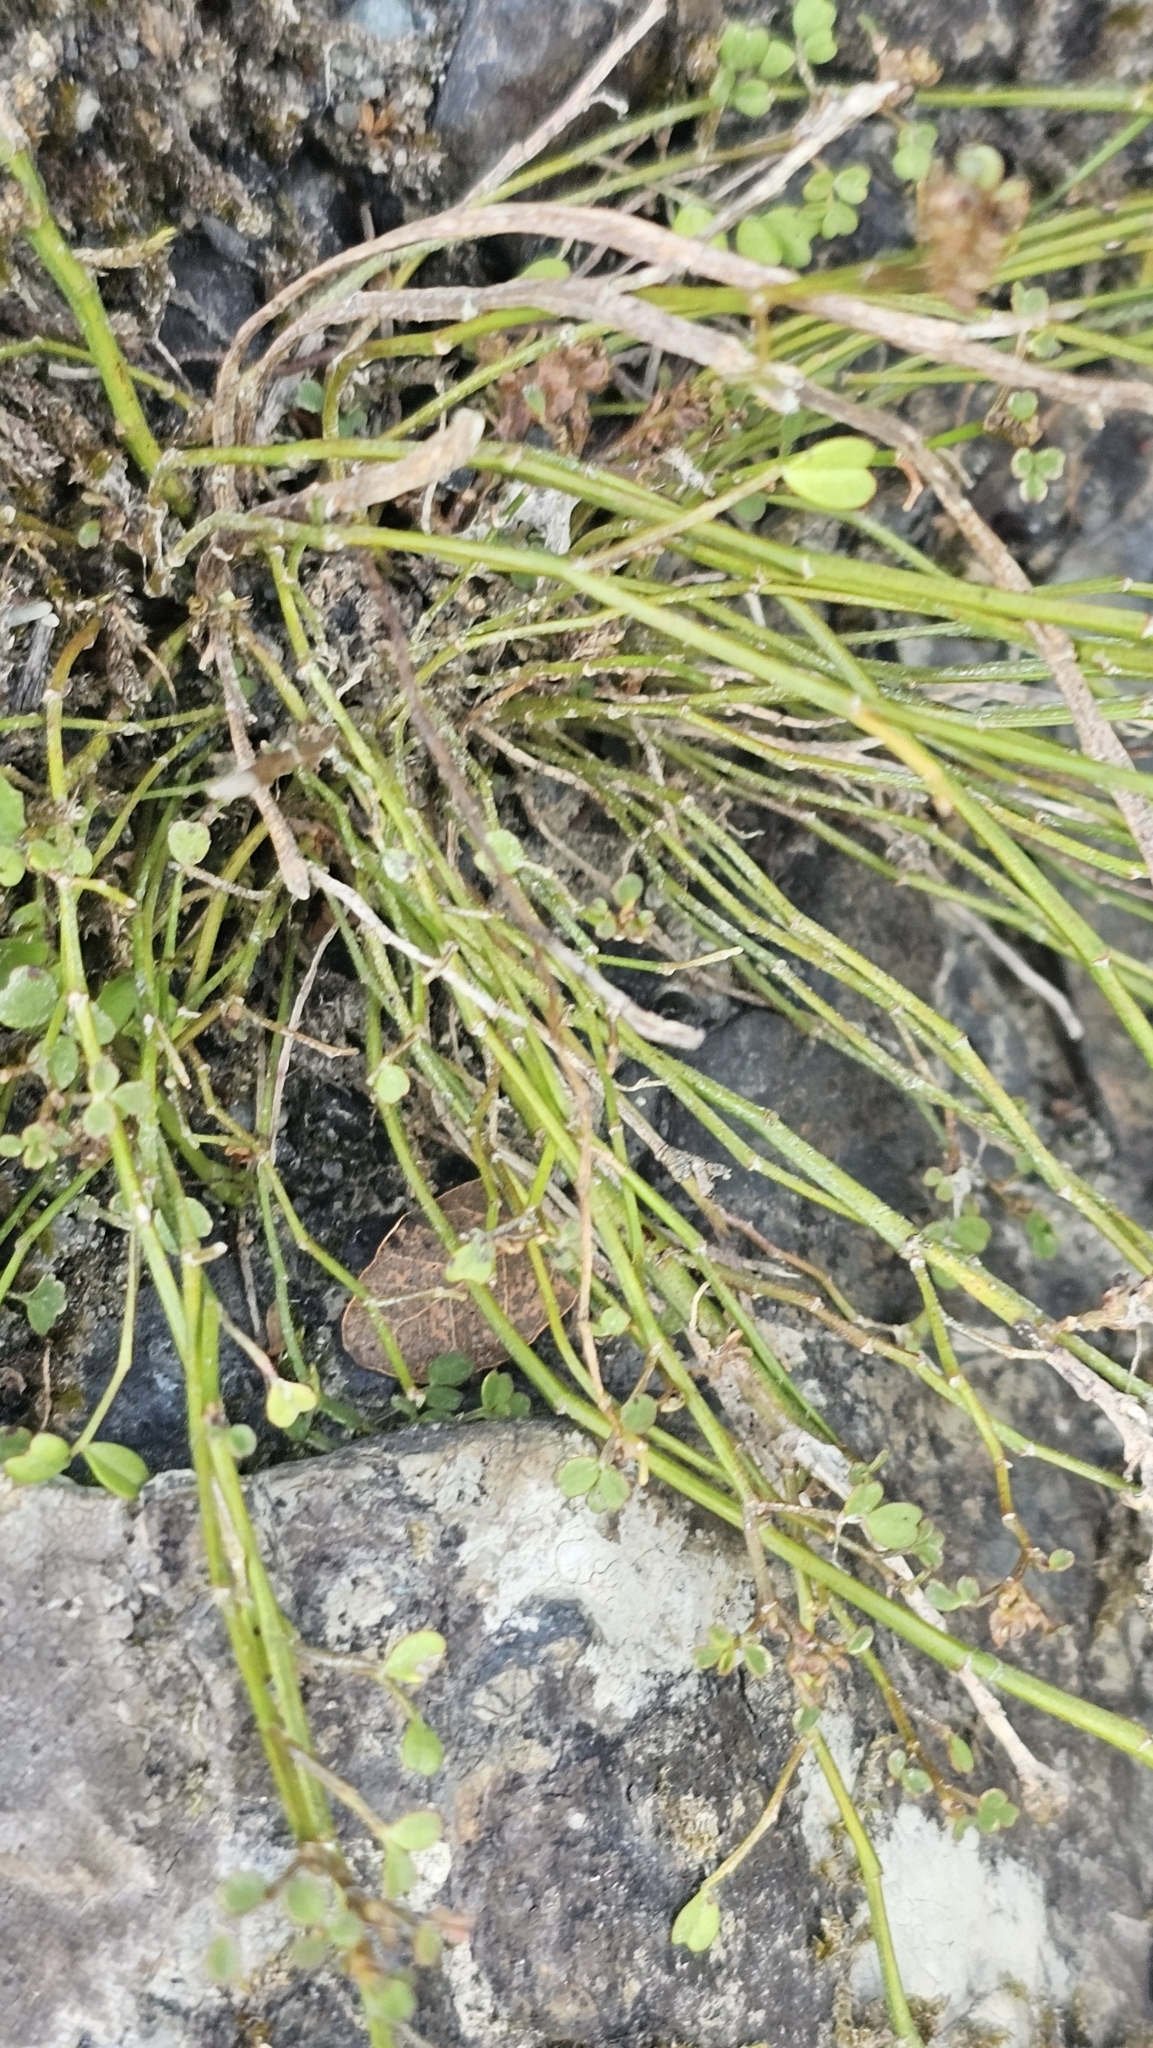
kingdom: Plantae
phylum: Tracheophyta
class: Magnoliopsida
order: Fabales
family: Fabaceae
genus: Carmichaelia
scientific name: Carmichaelia australis
